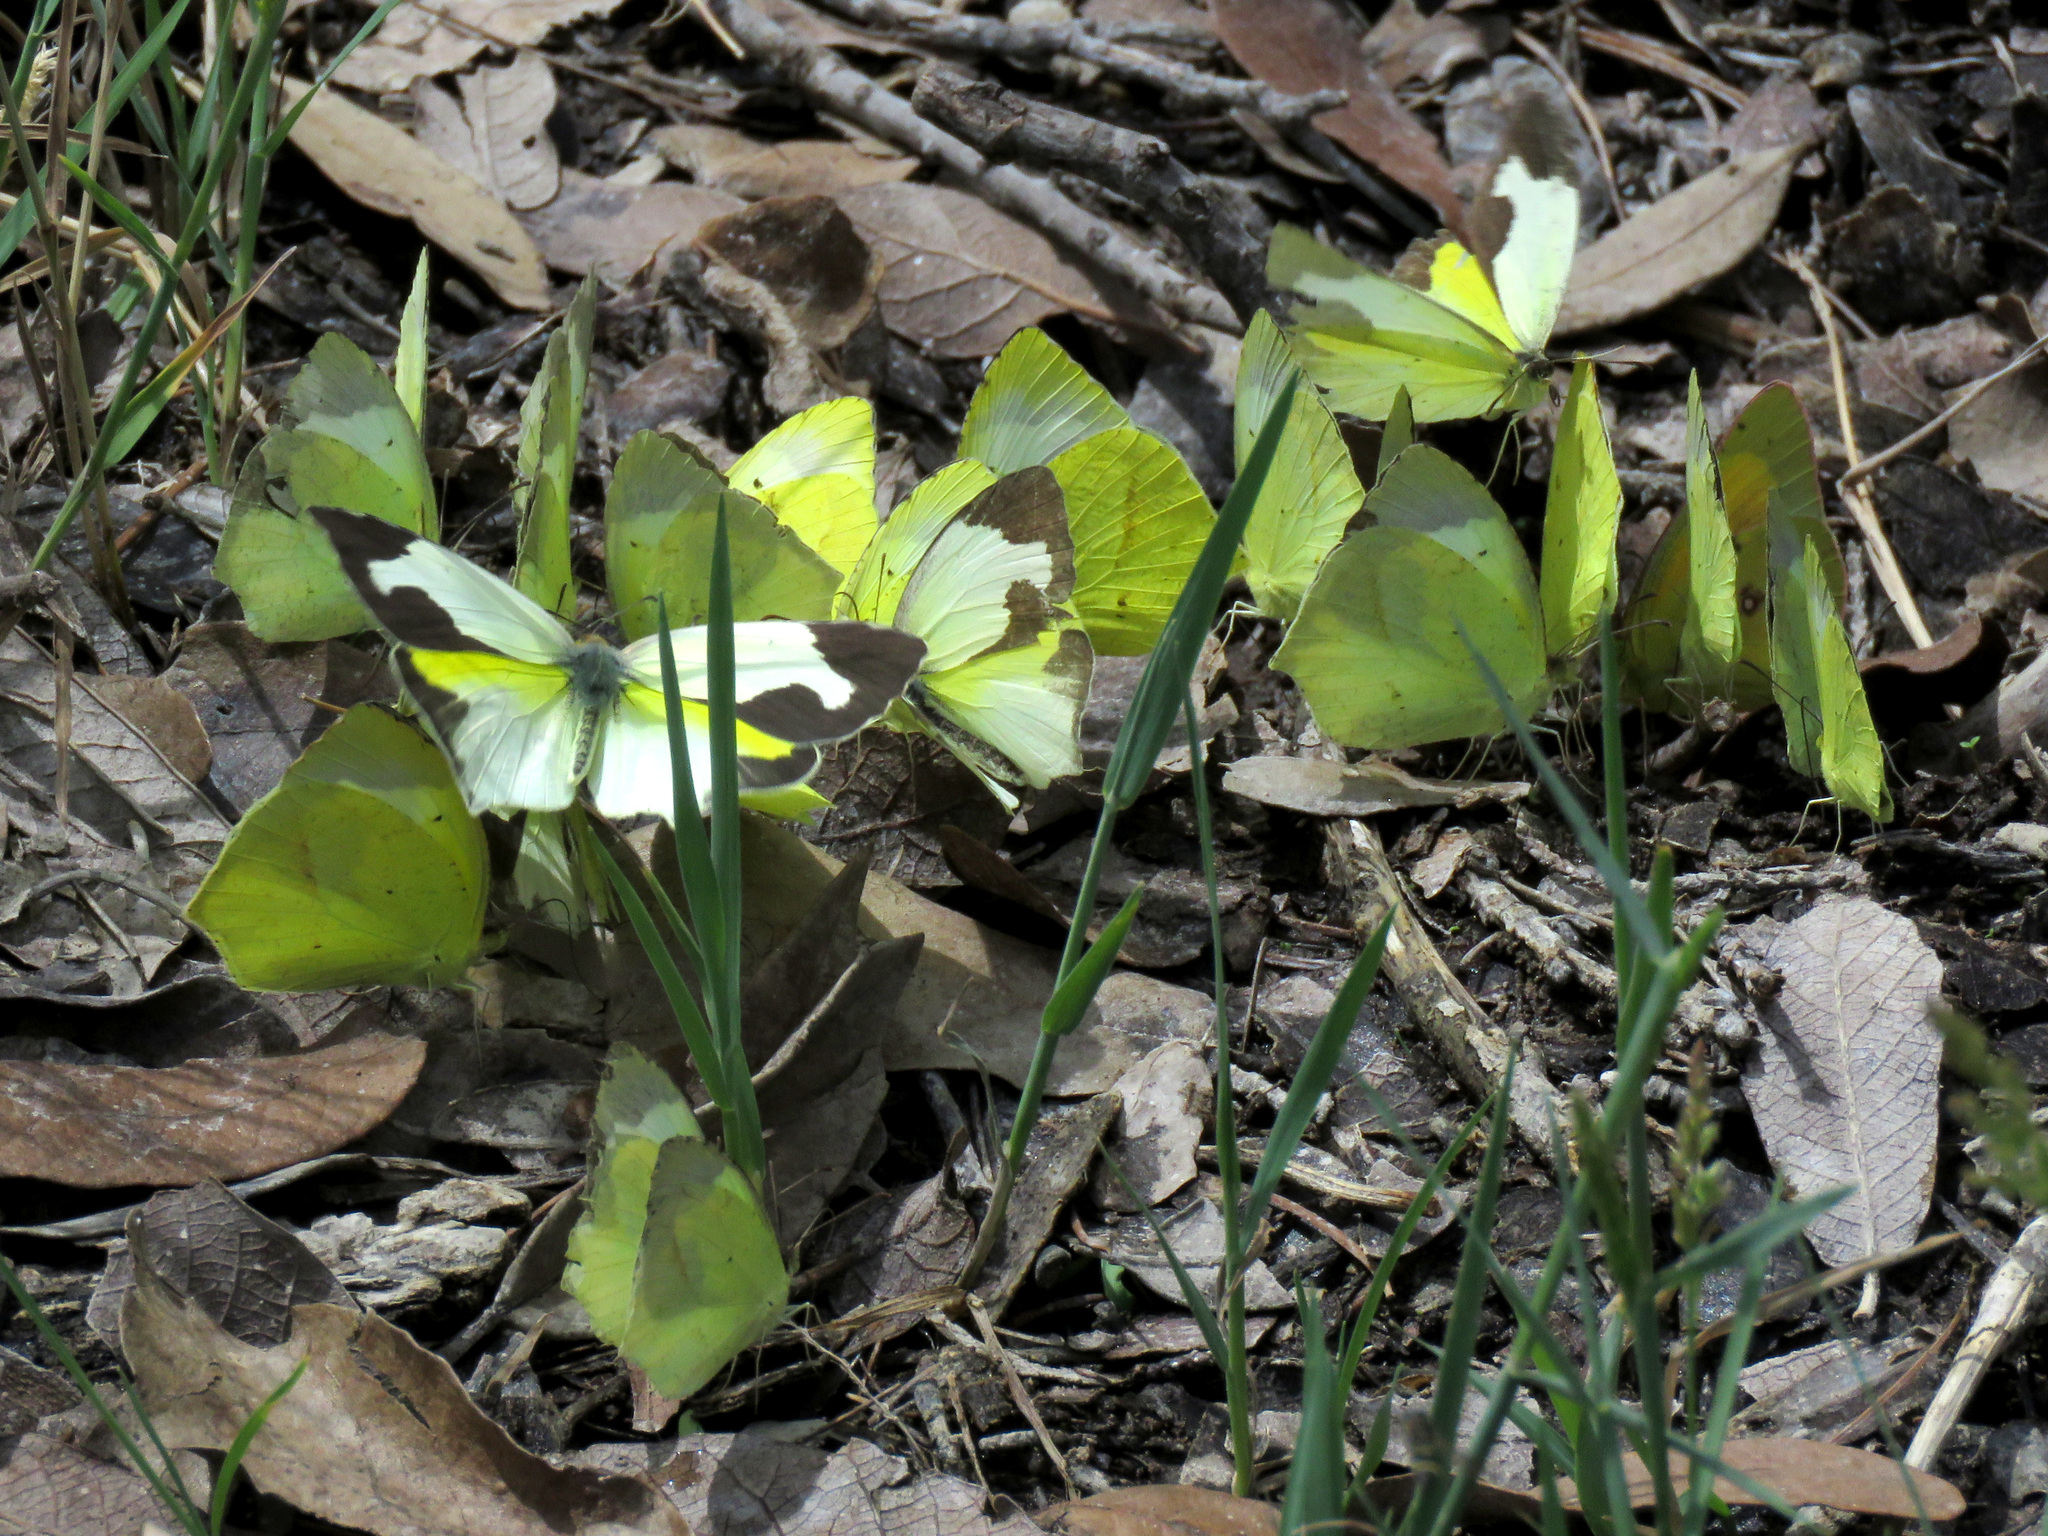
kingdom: Animalia
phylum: Arthropoda
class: Insecta
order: Lepidoptera
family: Pieridae
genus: Abaeis
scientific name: Abaeis mexicana
